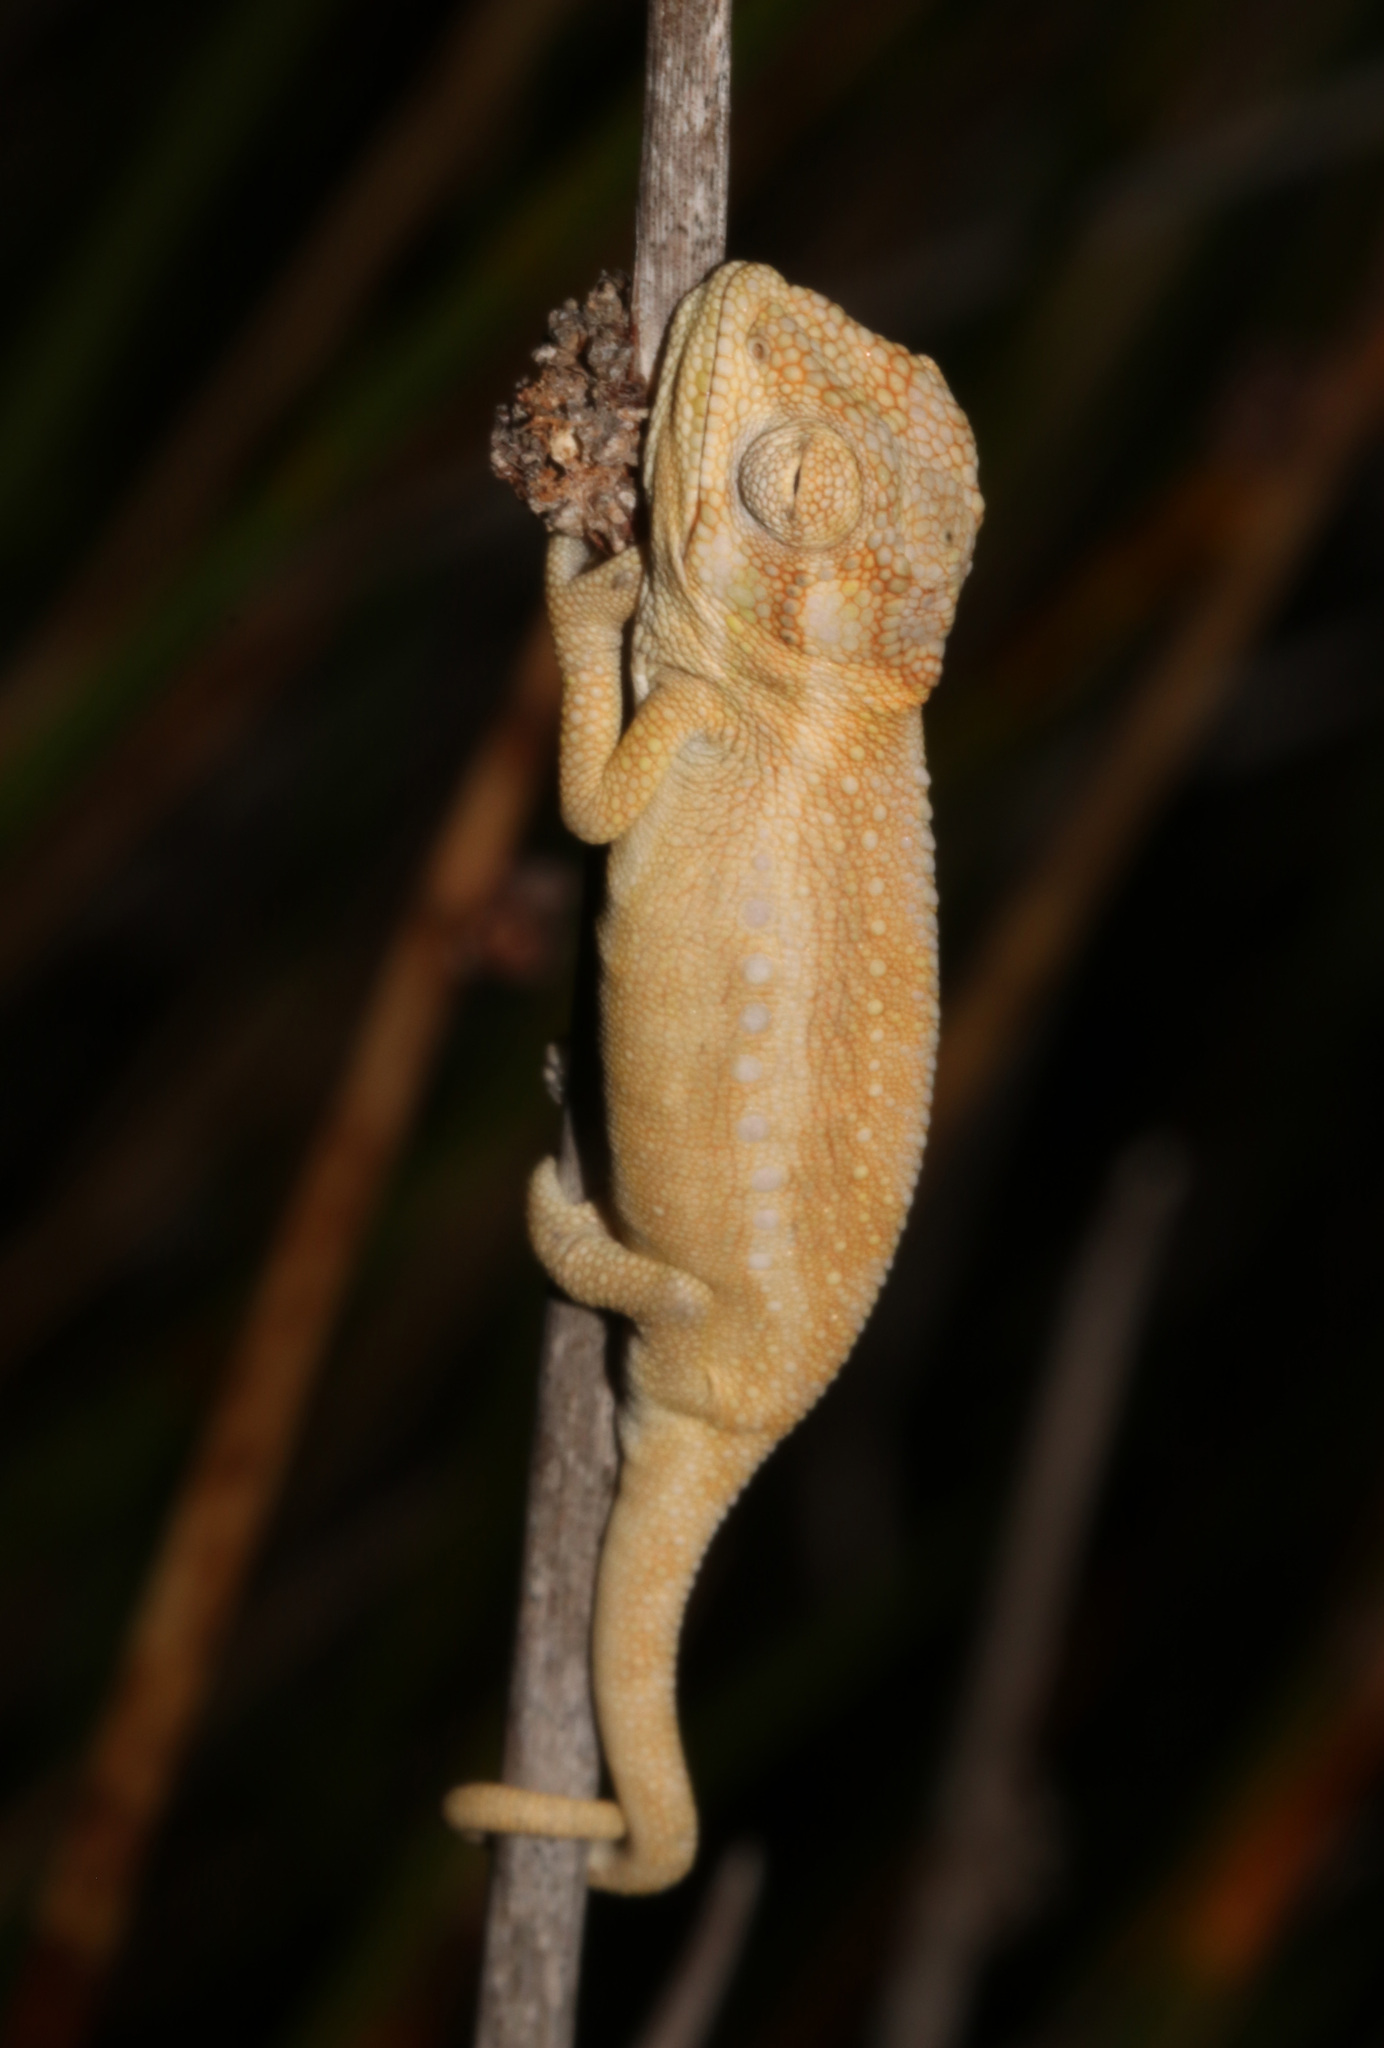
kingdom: Animalia
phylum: Chordata
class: Squamata
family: Chamaeleonidae
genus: Bradypodion
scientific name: Bradypodion pumilum
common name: Cape dwarf chameleon
